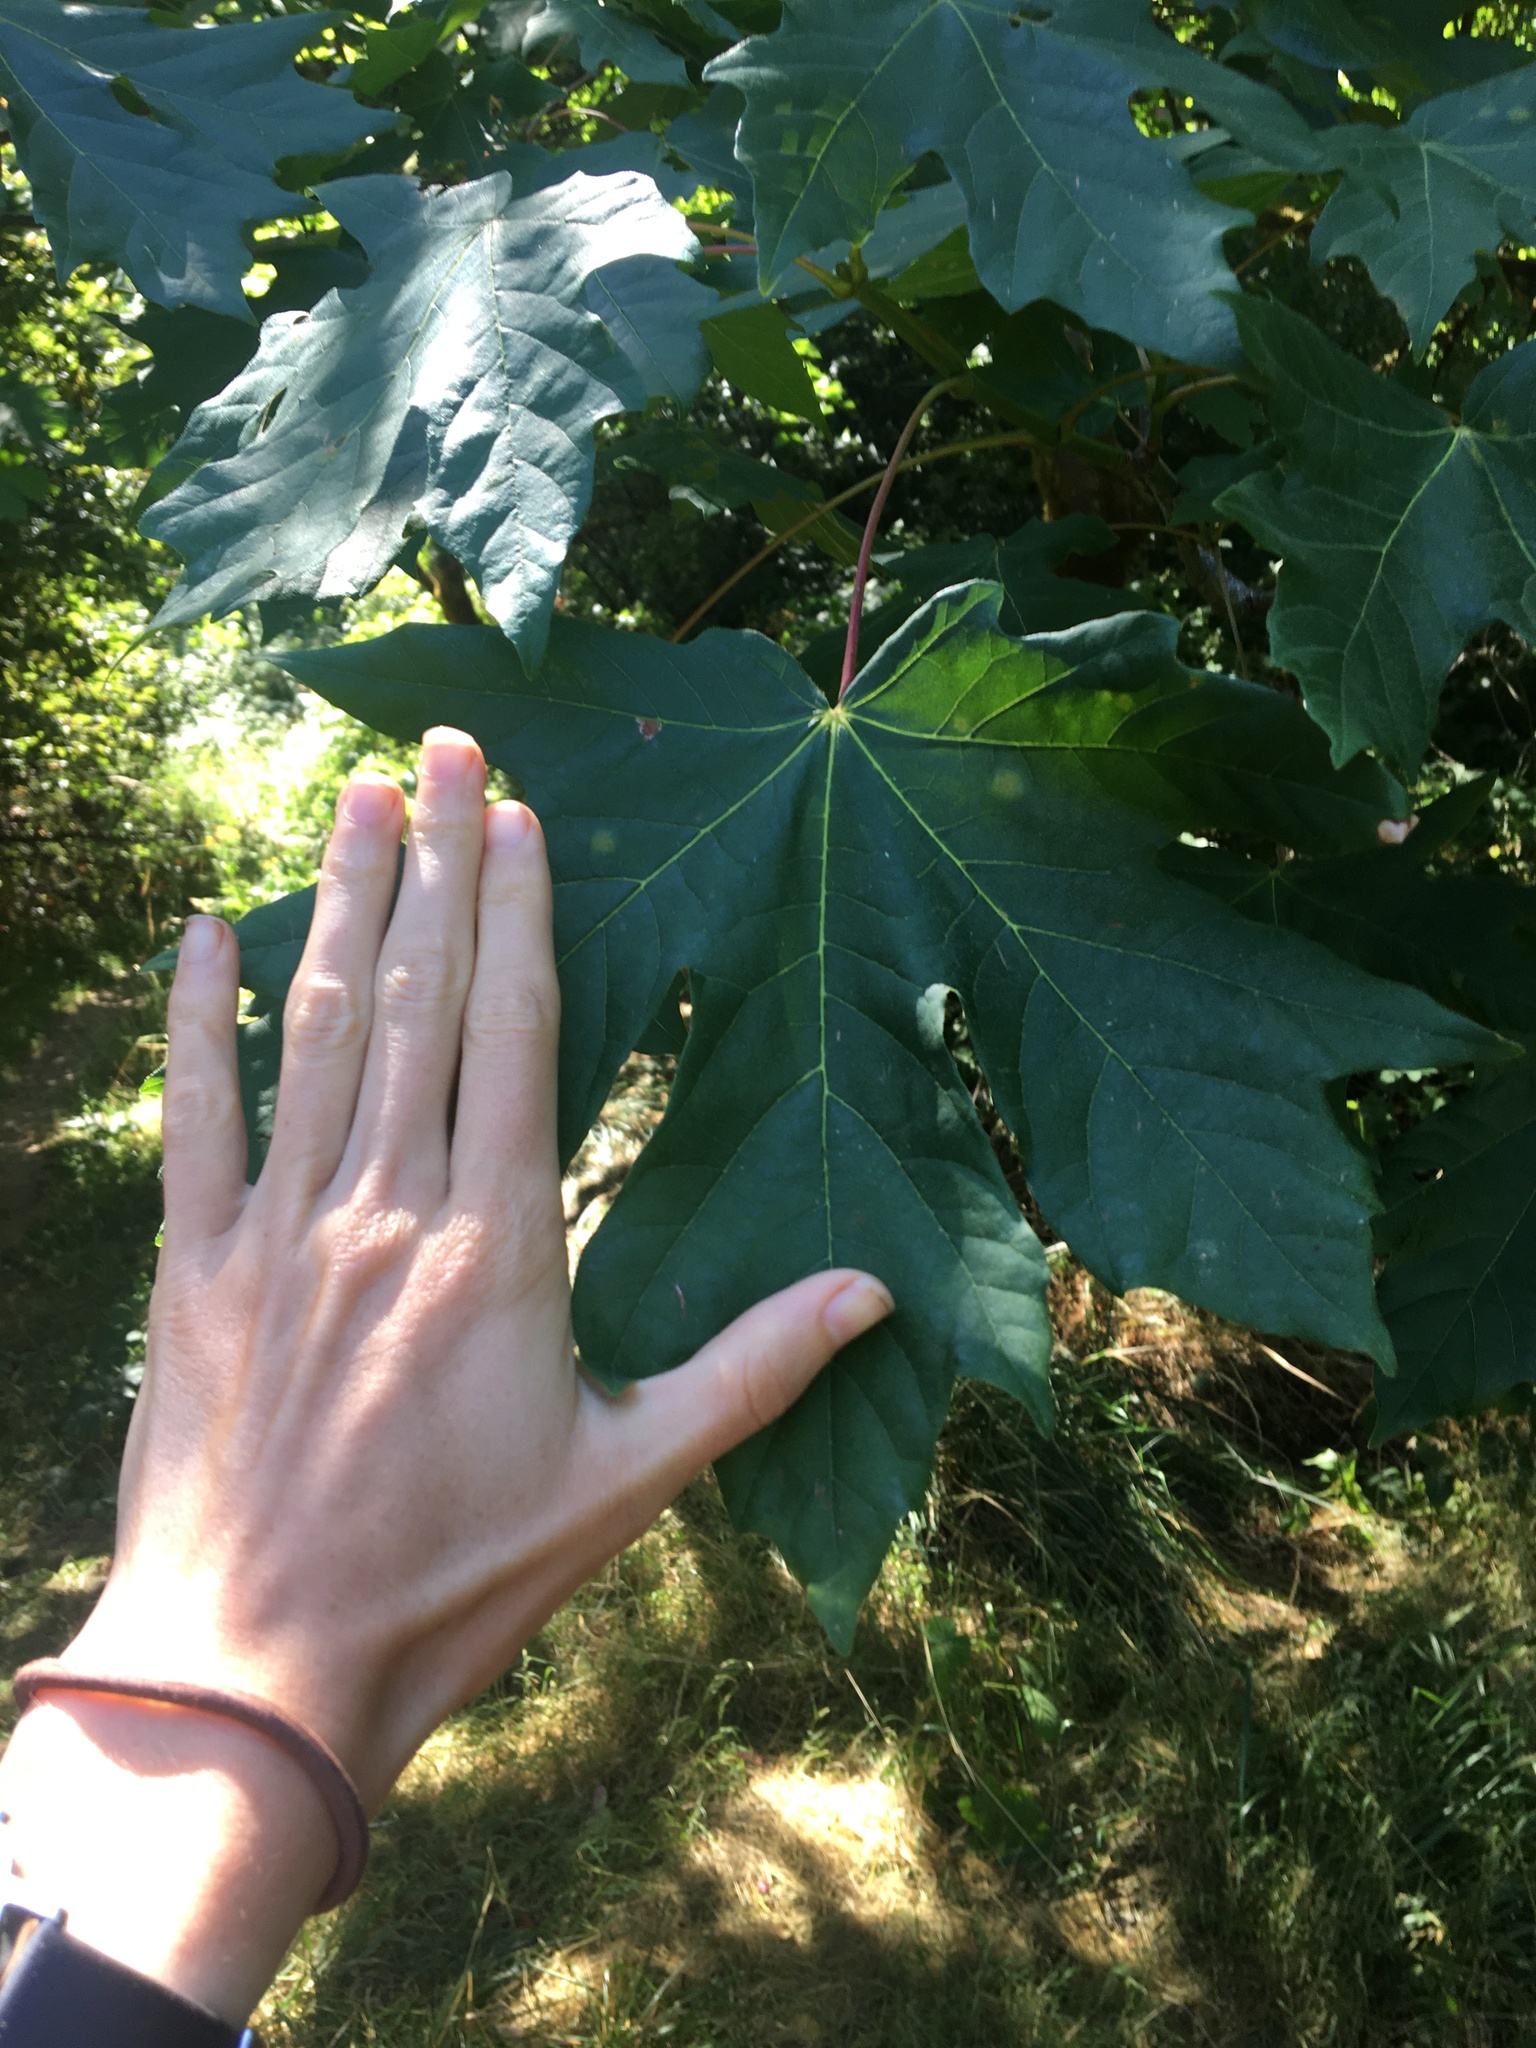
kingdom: Plantae
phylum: Tracheophyta
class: Magnoliopsida
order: Sapindales
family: Sapindaceae
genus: Acer
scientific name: Acer macrophyllum
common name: Oregon maple
